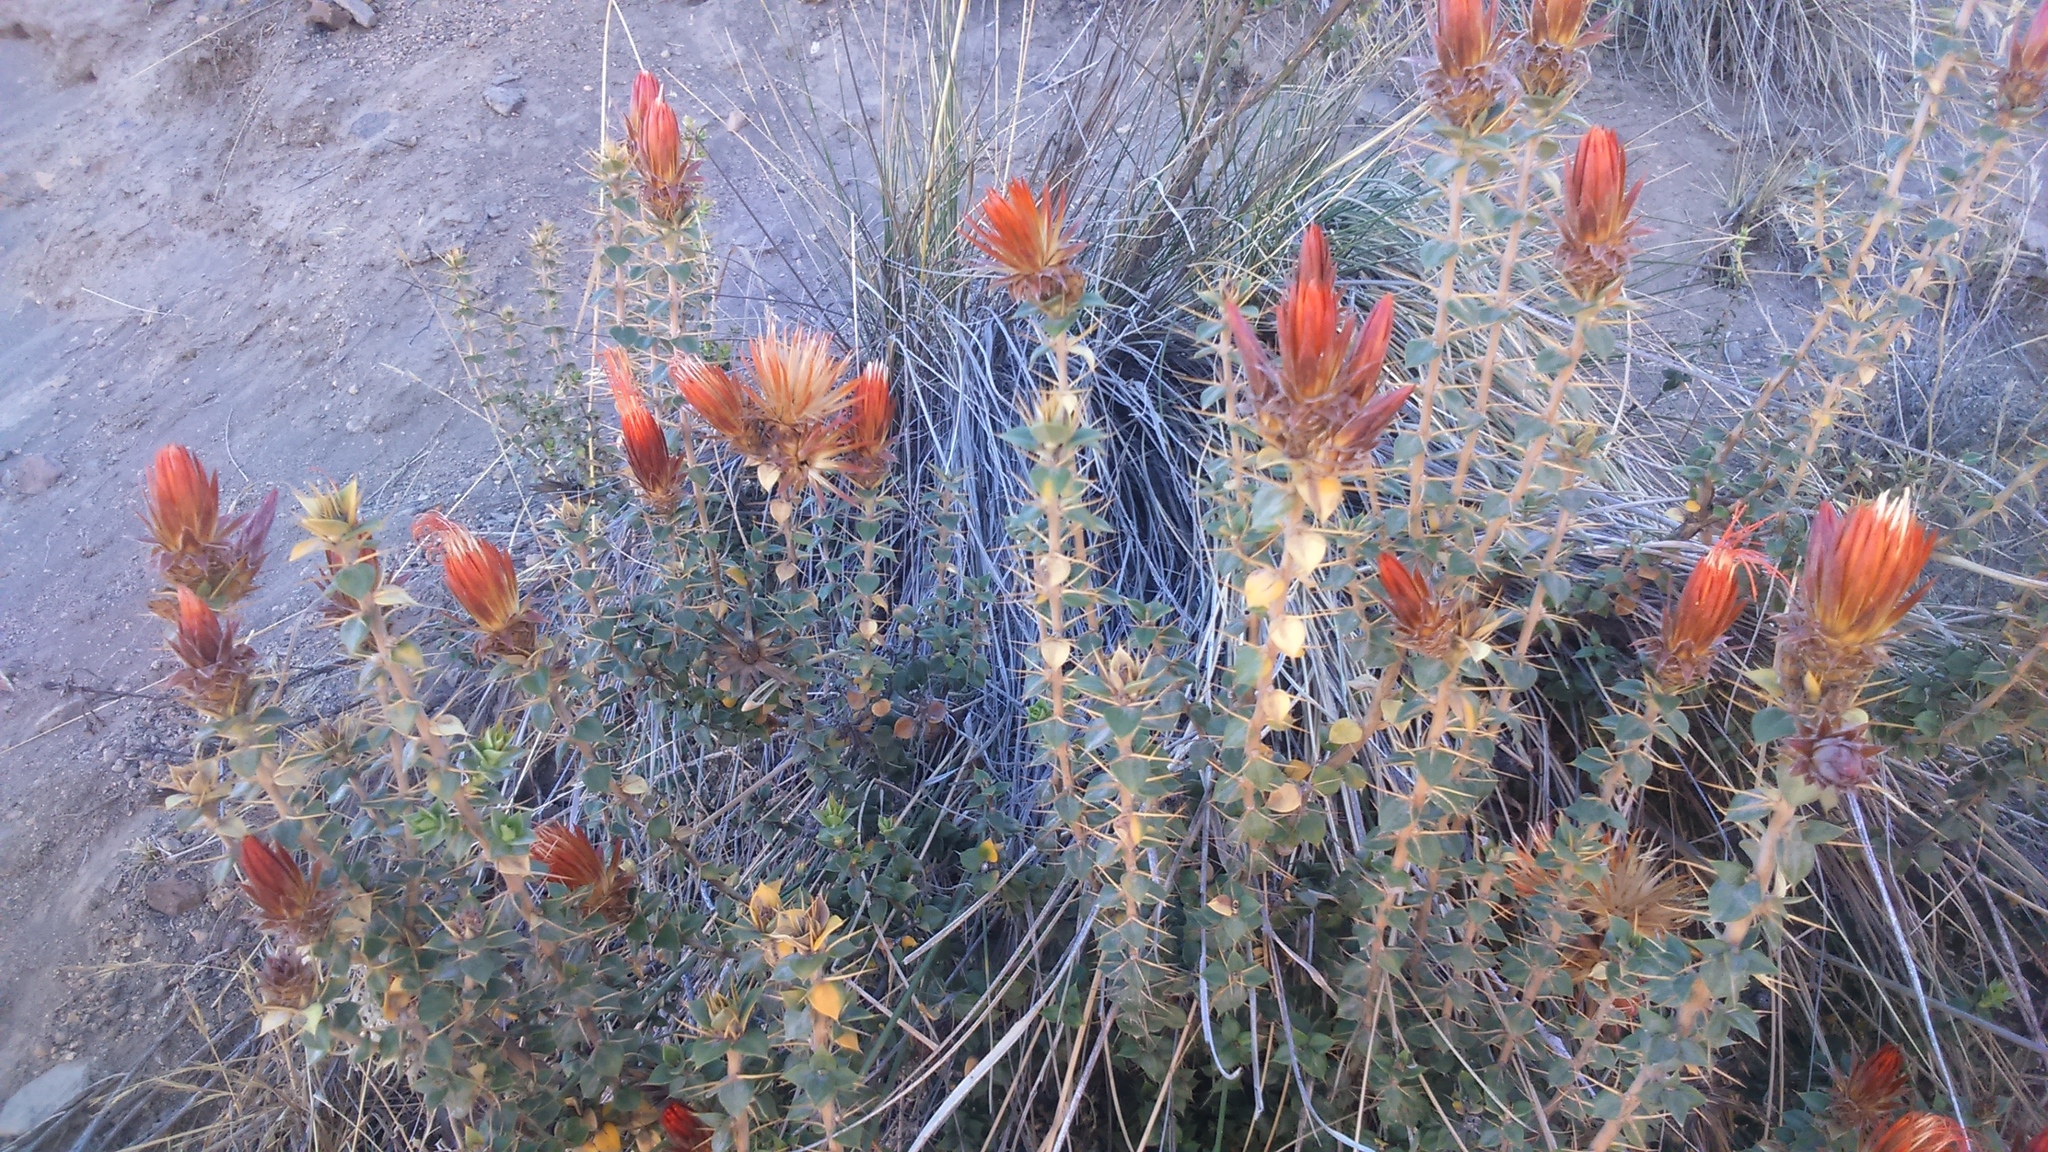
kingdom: Plantae
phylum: Tracheophyta
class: Magnoliopsida
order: Asterales
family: Asteraceae
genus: Chuquiraga
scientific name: Chuquiraga spinosa
